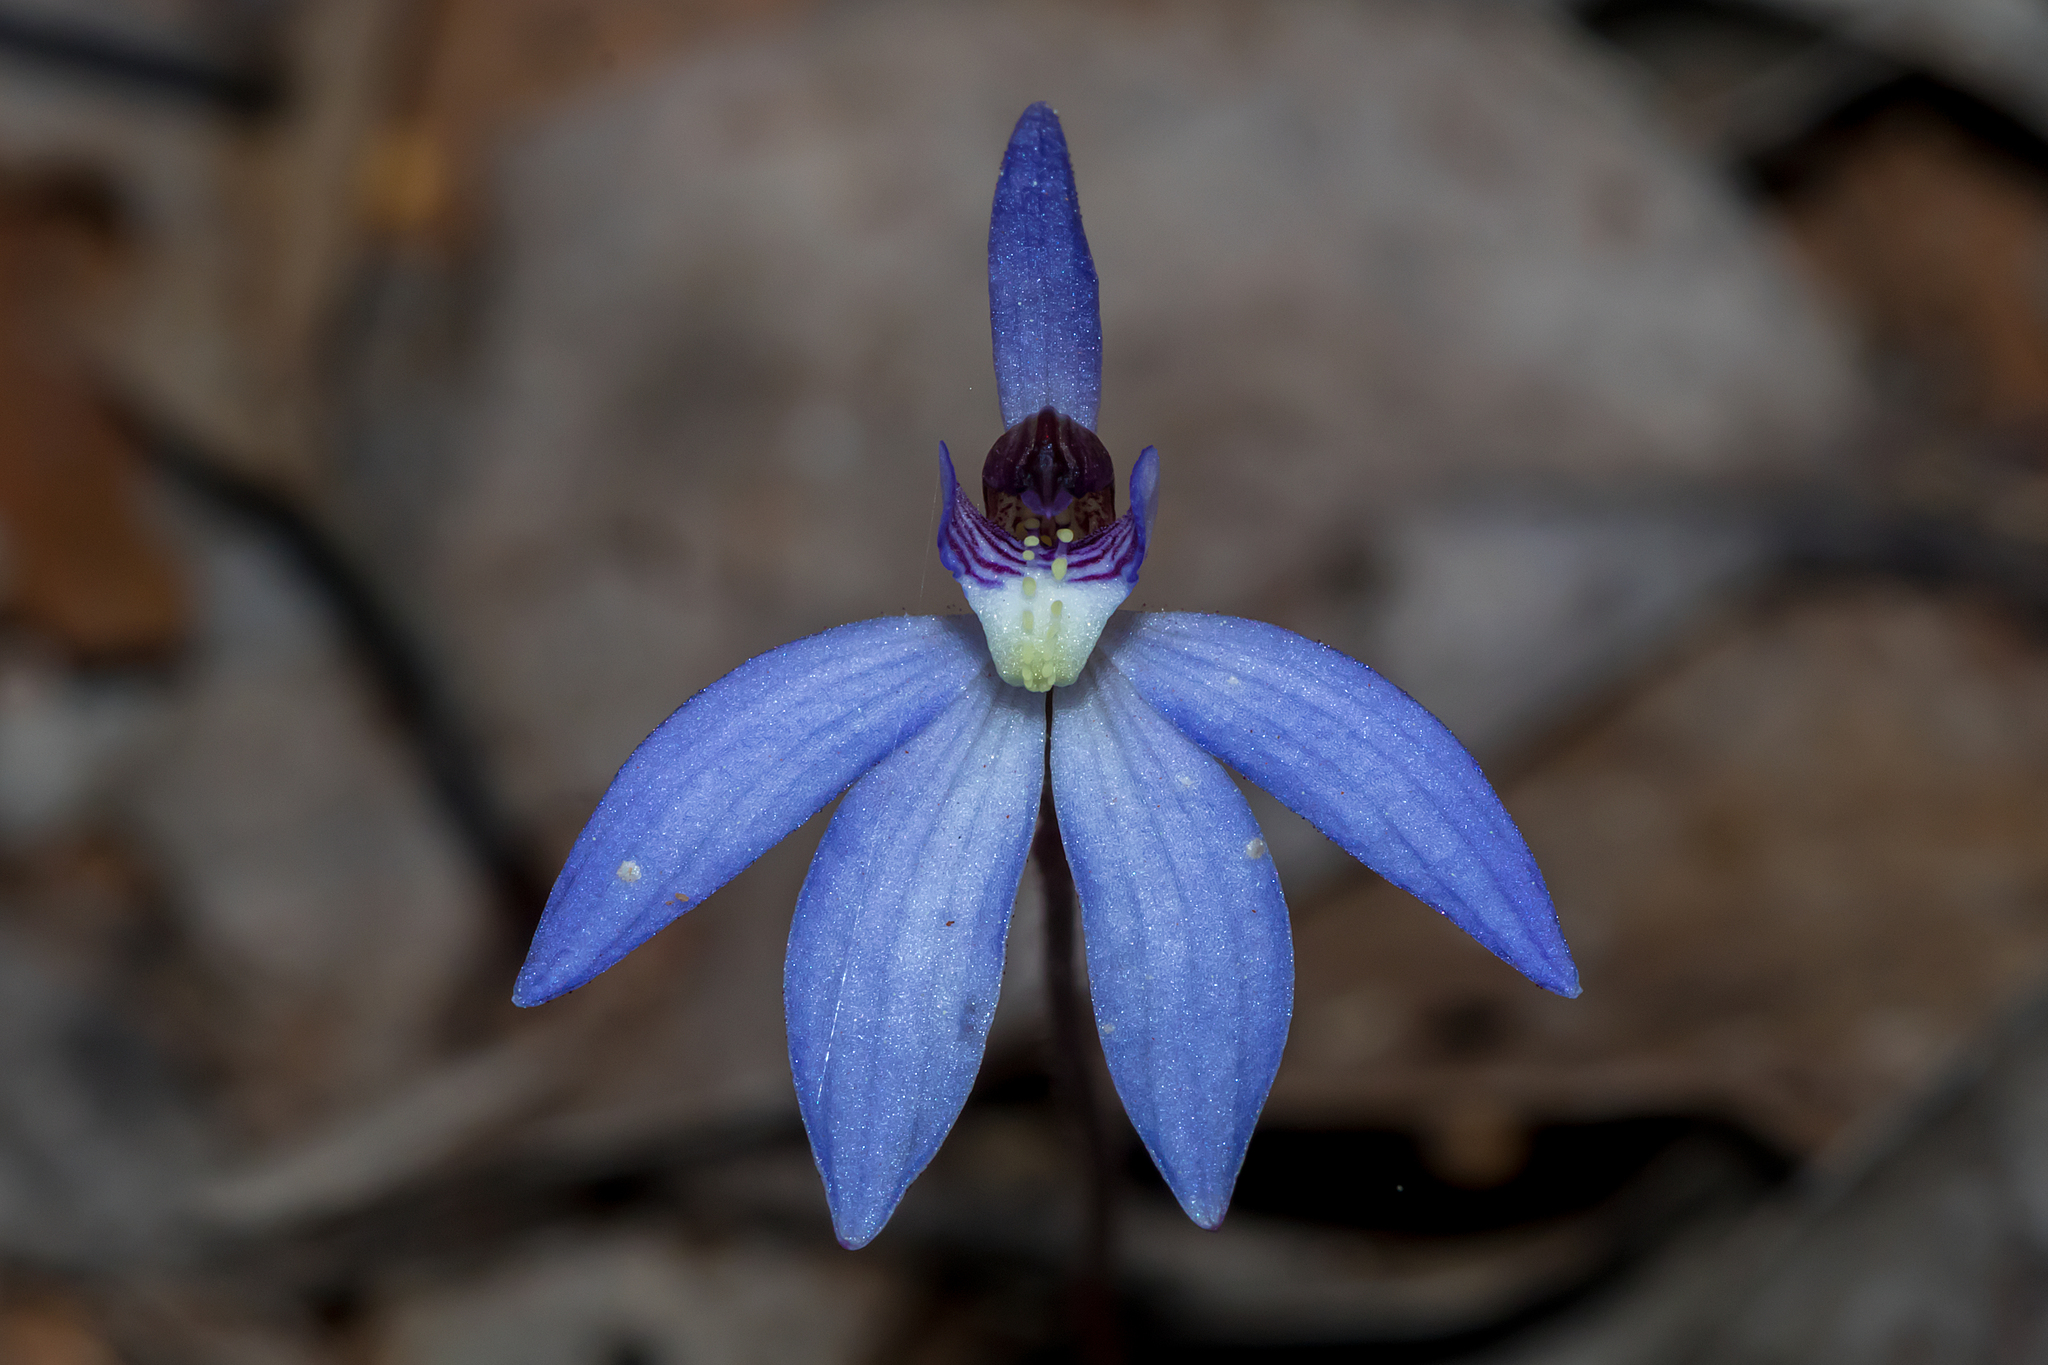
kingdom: Plantae
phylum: Tracheophyta
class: Liliopsida
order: Asparagales
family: Orchidaceae
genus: Caladenia
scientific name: Caladenia caerulea
